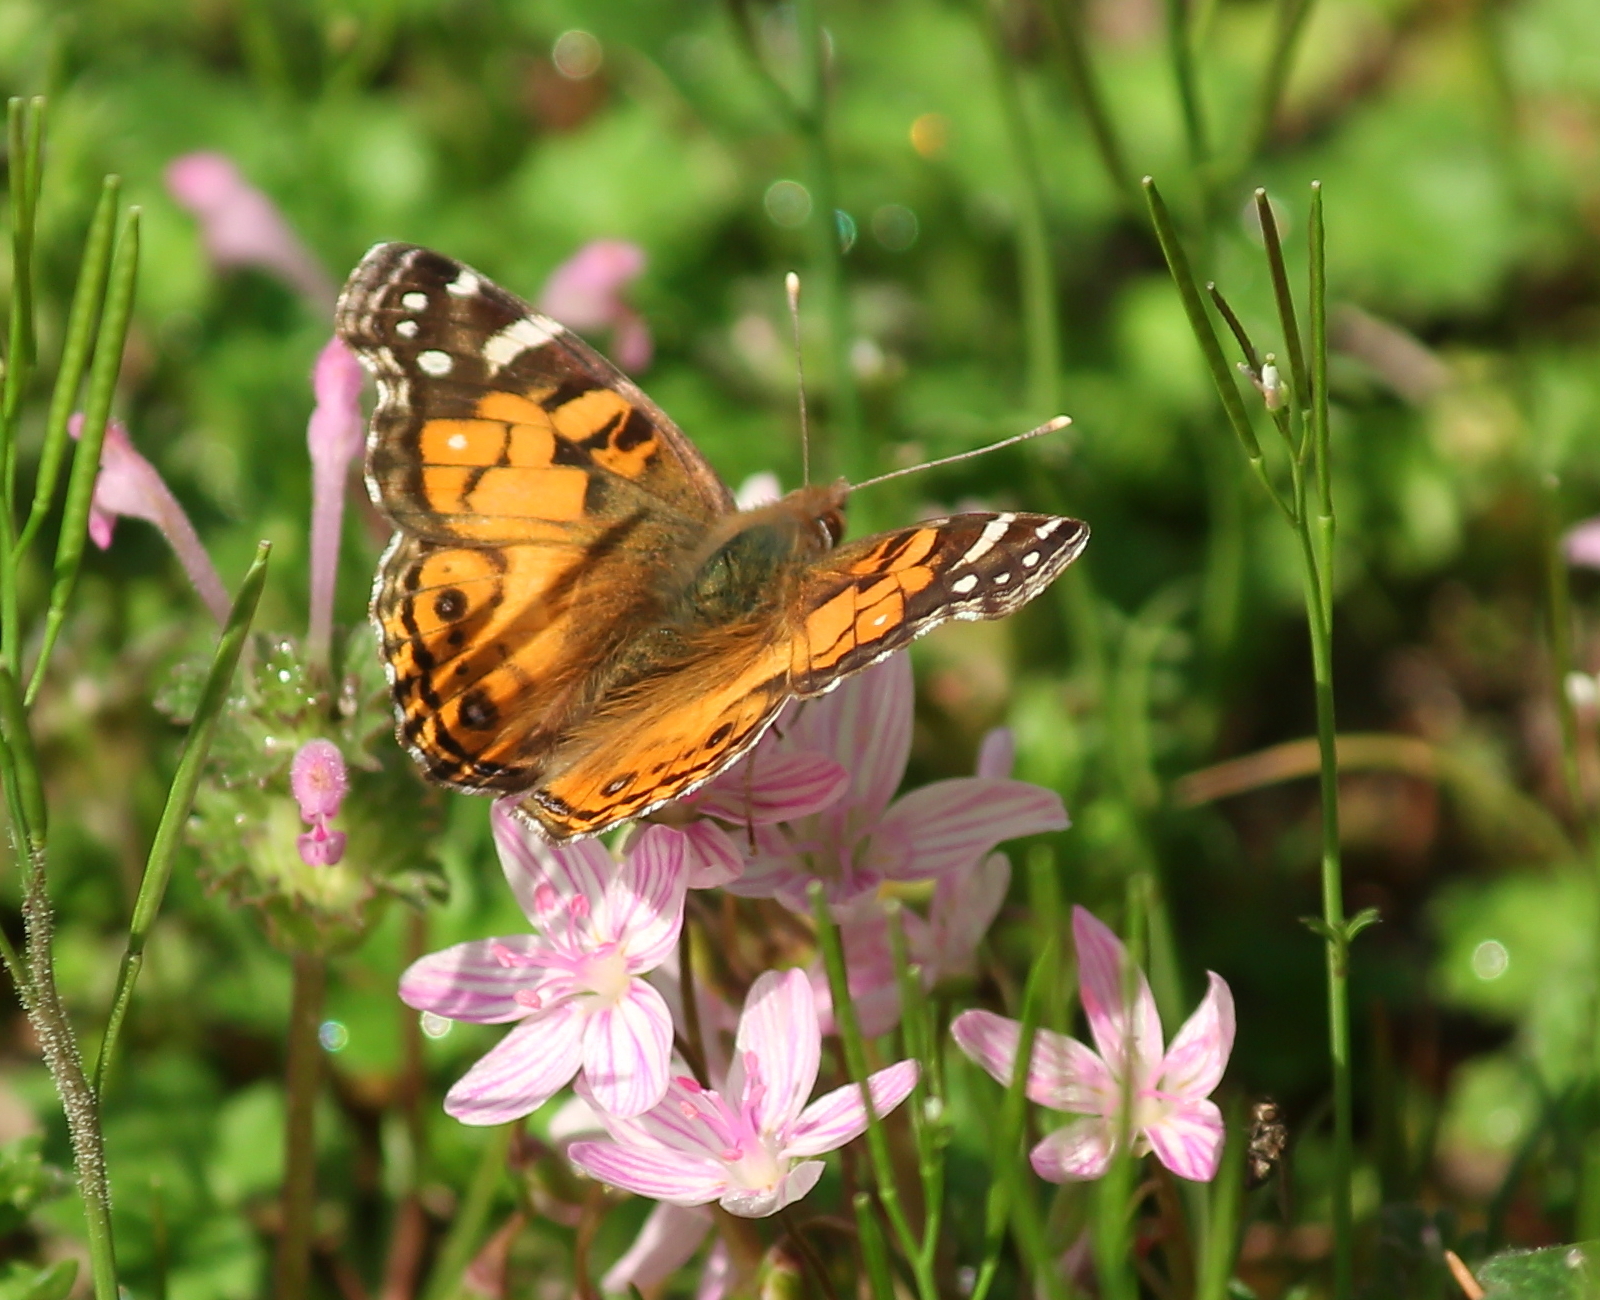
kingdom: Animalia
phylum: Arthropoda
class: Insecta
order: Lepidoptera
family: Nymphalidae
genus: Vanessa
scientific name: Vanessa virginiensis
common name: American lady
